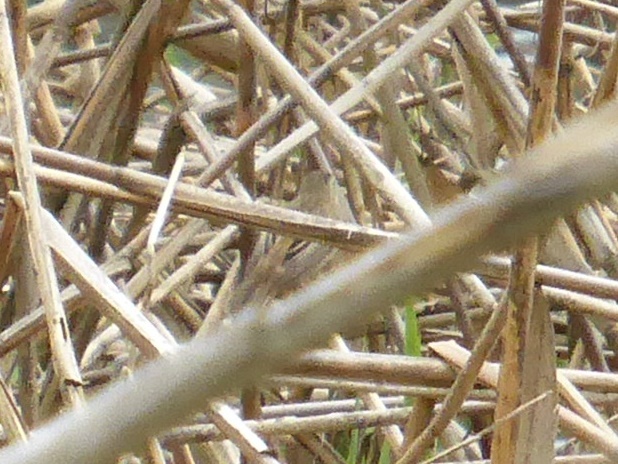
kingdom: Animalia
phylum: Chordata
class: Aves
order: Passeriformes
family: Acrocephalidae
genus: Acrocephalus
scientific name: Acrocephalus schoenobaenus
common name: Sedge warbler
